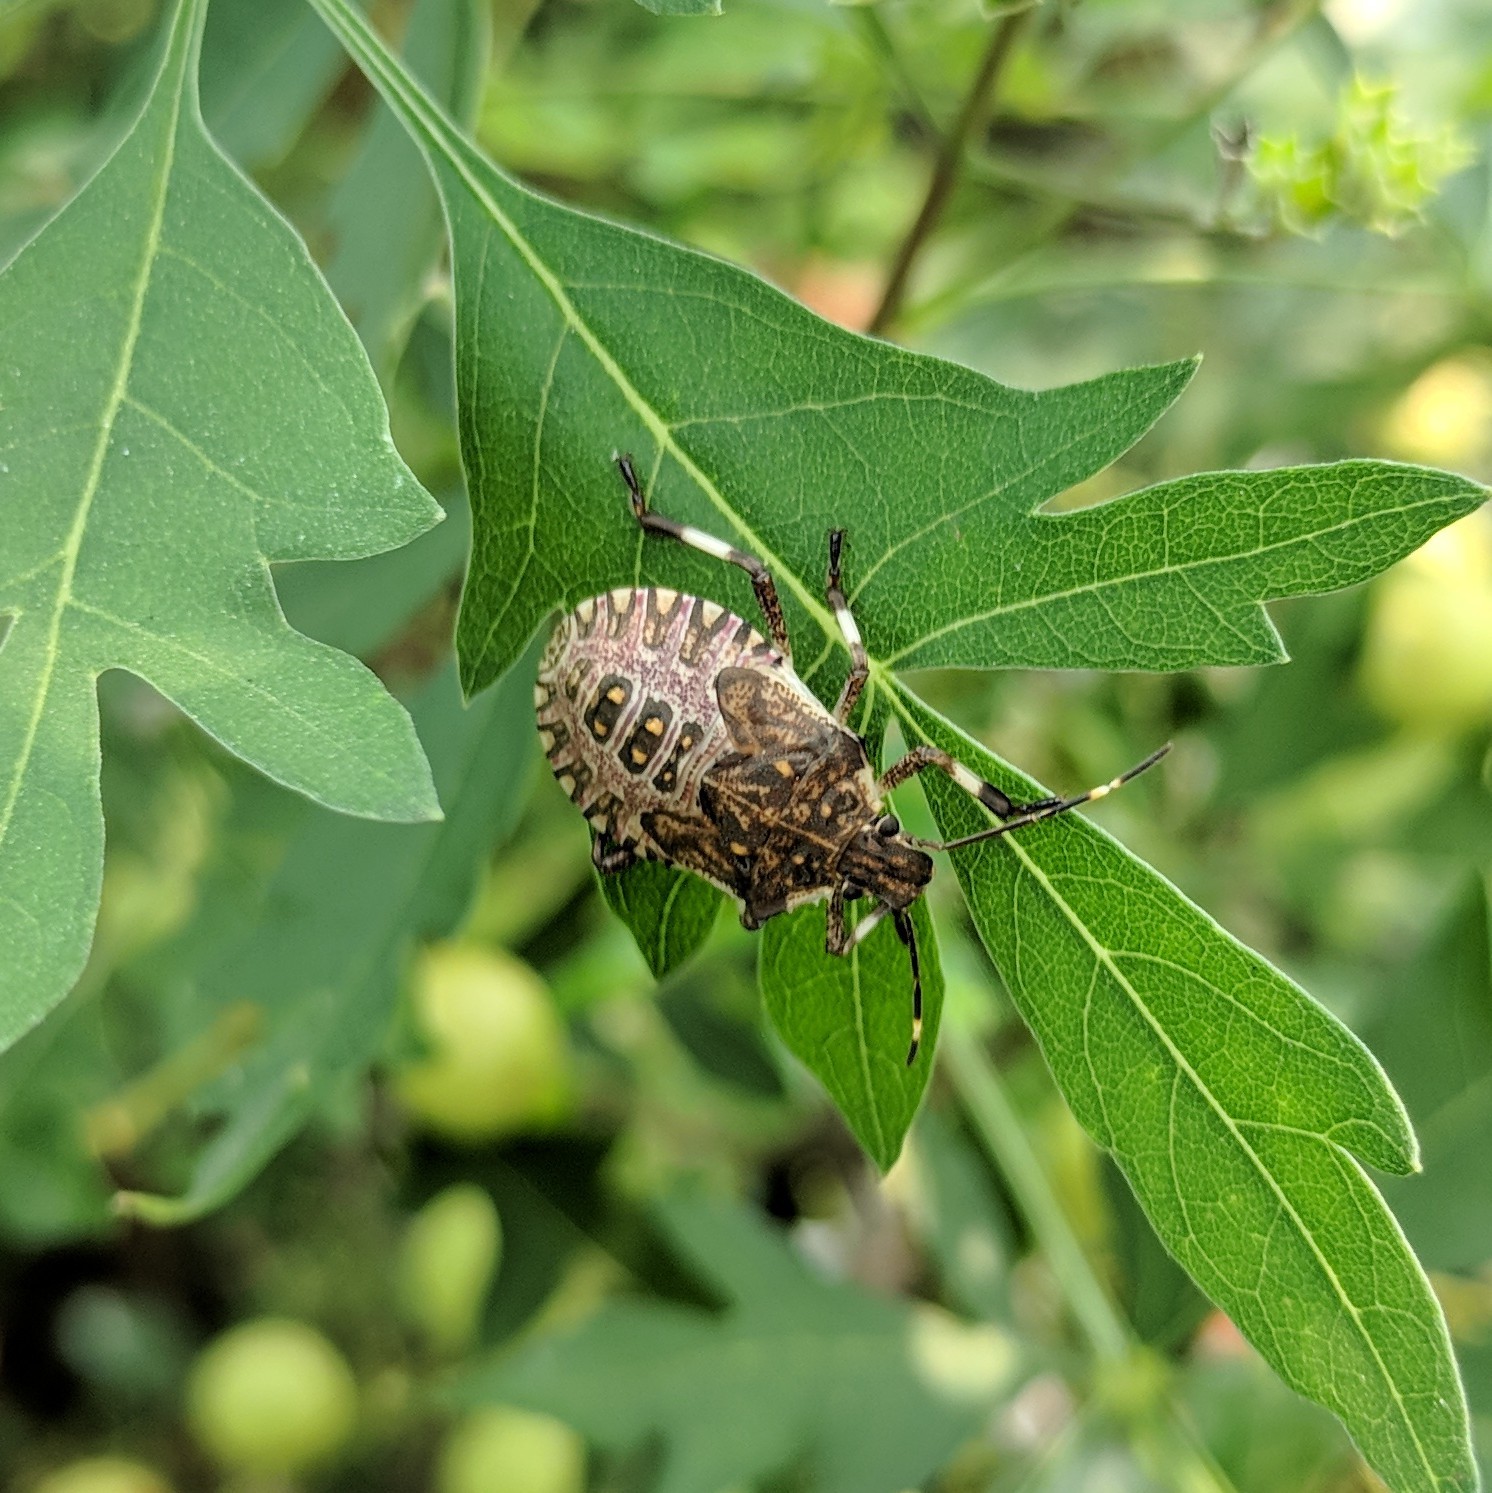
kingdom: Animalia
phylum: Arthropoda
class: Insecta
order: Hemiptera
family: Pentatomidae
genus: Halyomorpha
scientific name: Halyomorpha halys
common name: Brown marmorated stink bug
